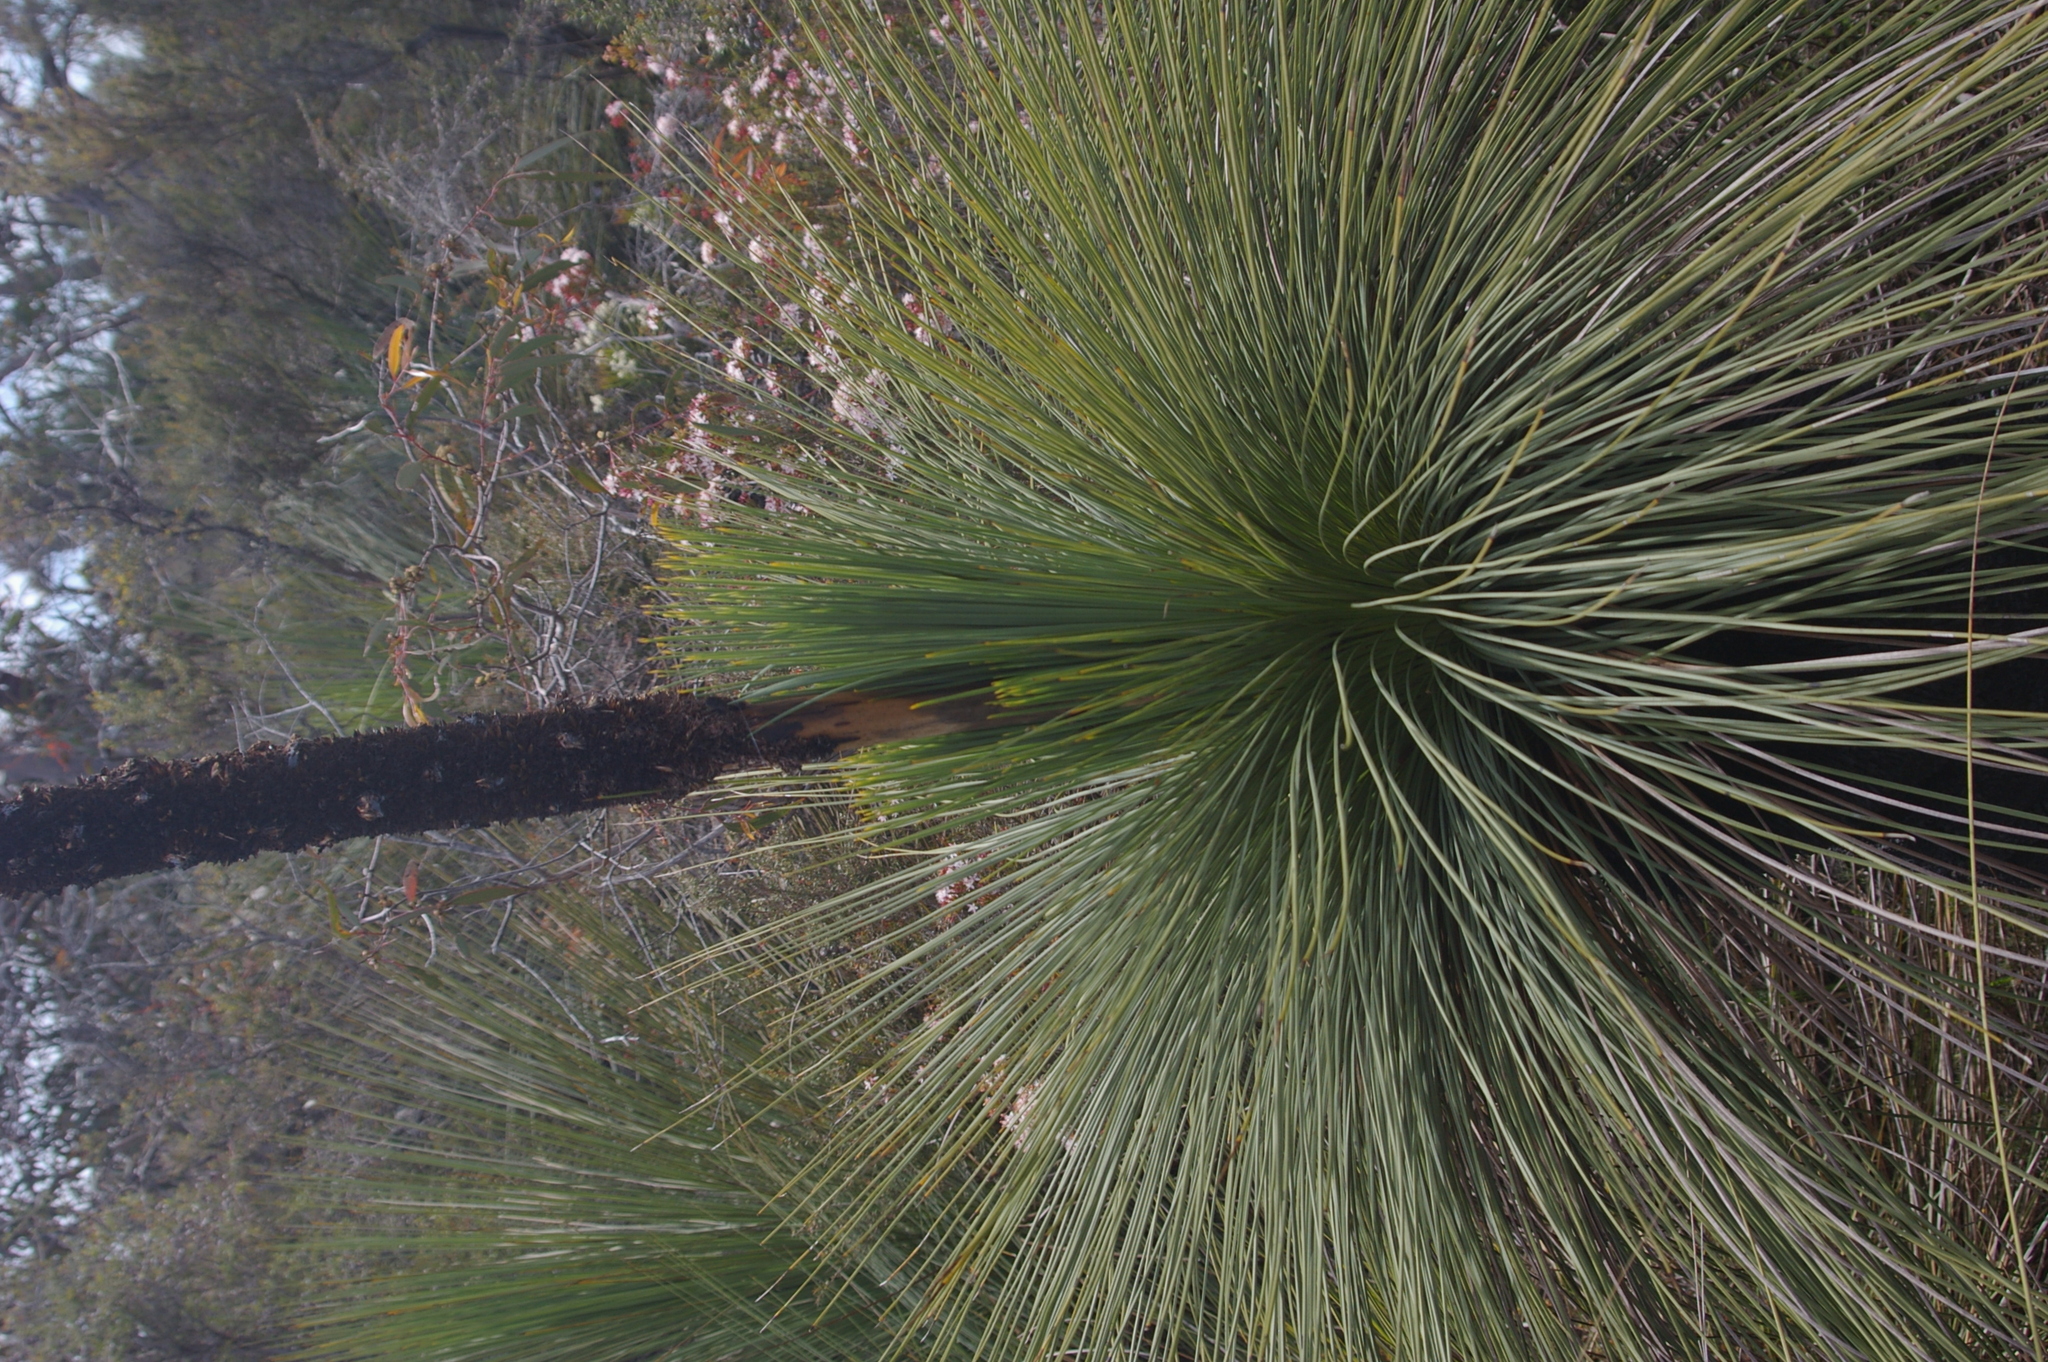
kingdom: Plantae
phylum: Tracheophyta
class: Liliopsida
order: Asparagales
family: Asphodelaceae
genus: Xanthorrhoea
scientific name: Xanthorrhoea australis
